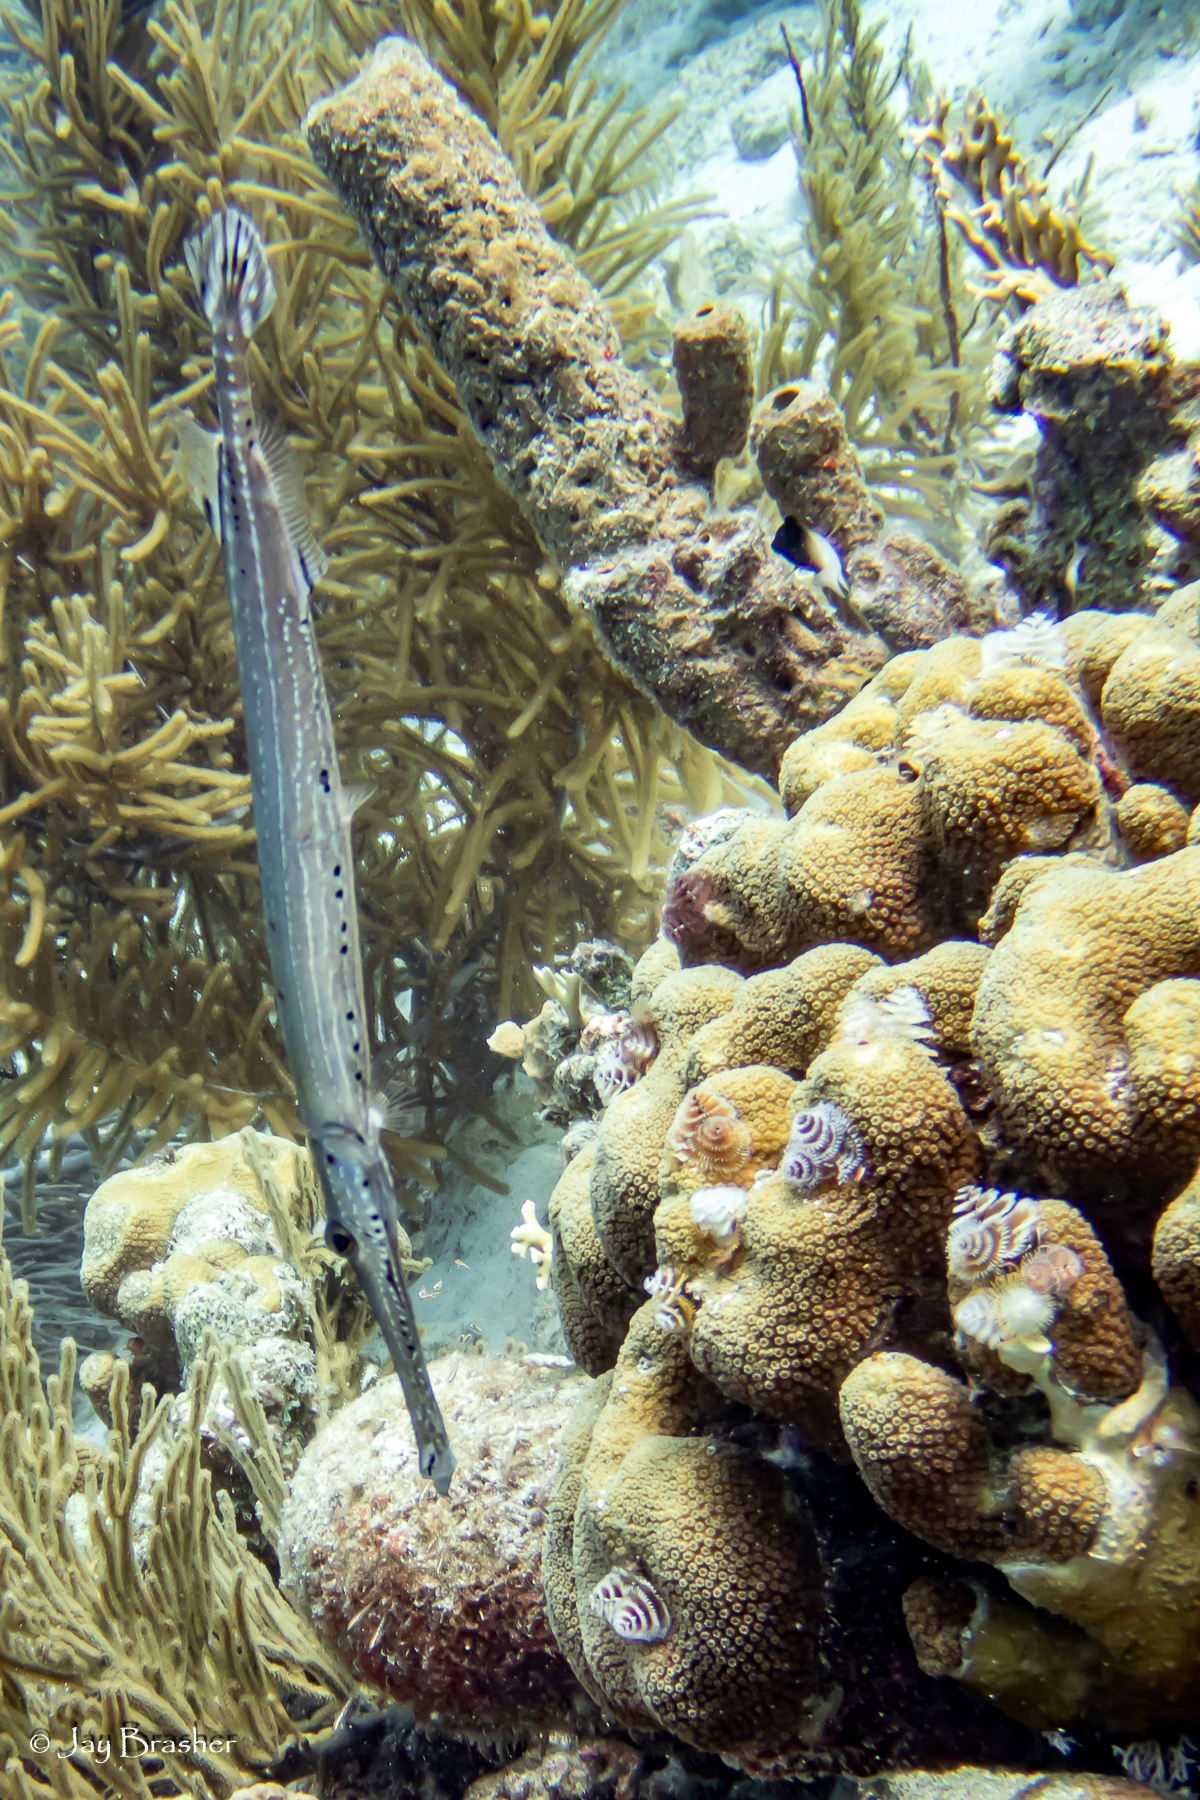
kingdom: Animalia
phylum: Cnidaria
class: Anthozoa
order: Scleractinia
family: Merulinidae
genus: Orbicella
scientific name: Orbicella annularis
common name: Boulder star coral
